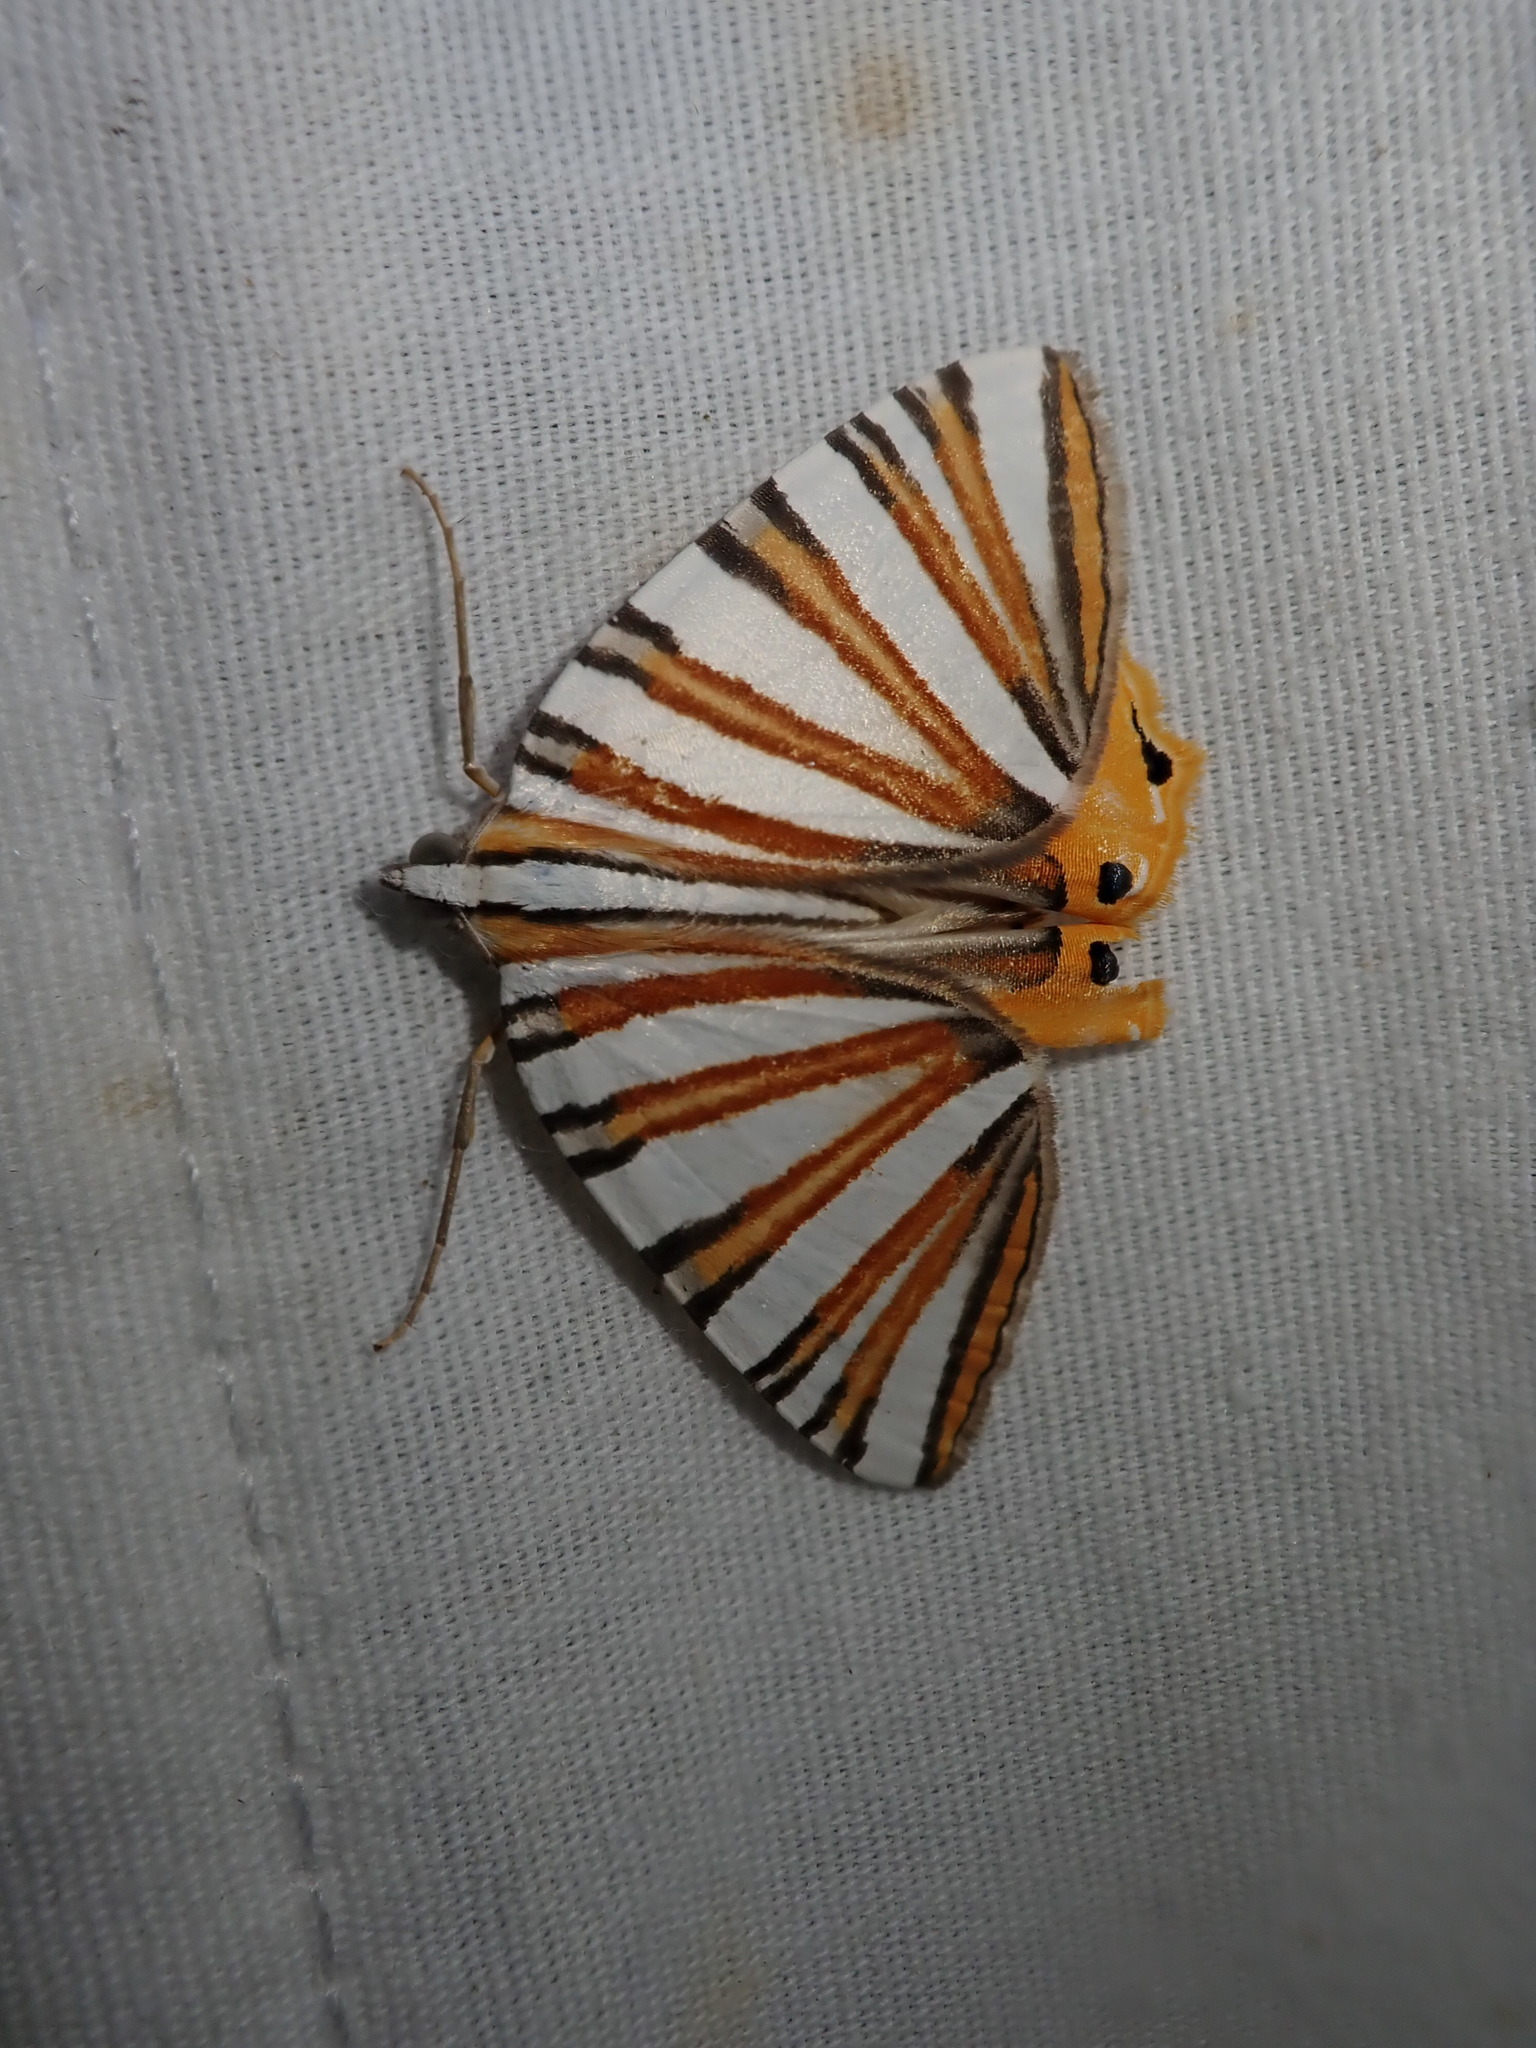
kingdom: Animalia
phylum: Arthropoda
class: Insecta
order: Lepidoptera
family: Geometridae
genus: Pityeja
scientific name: Pityeja histrionaria
